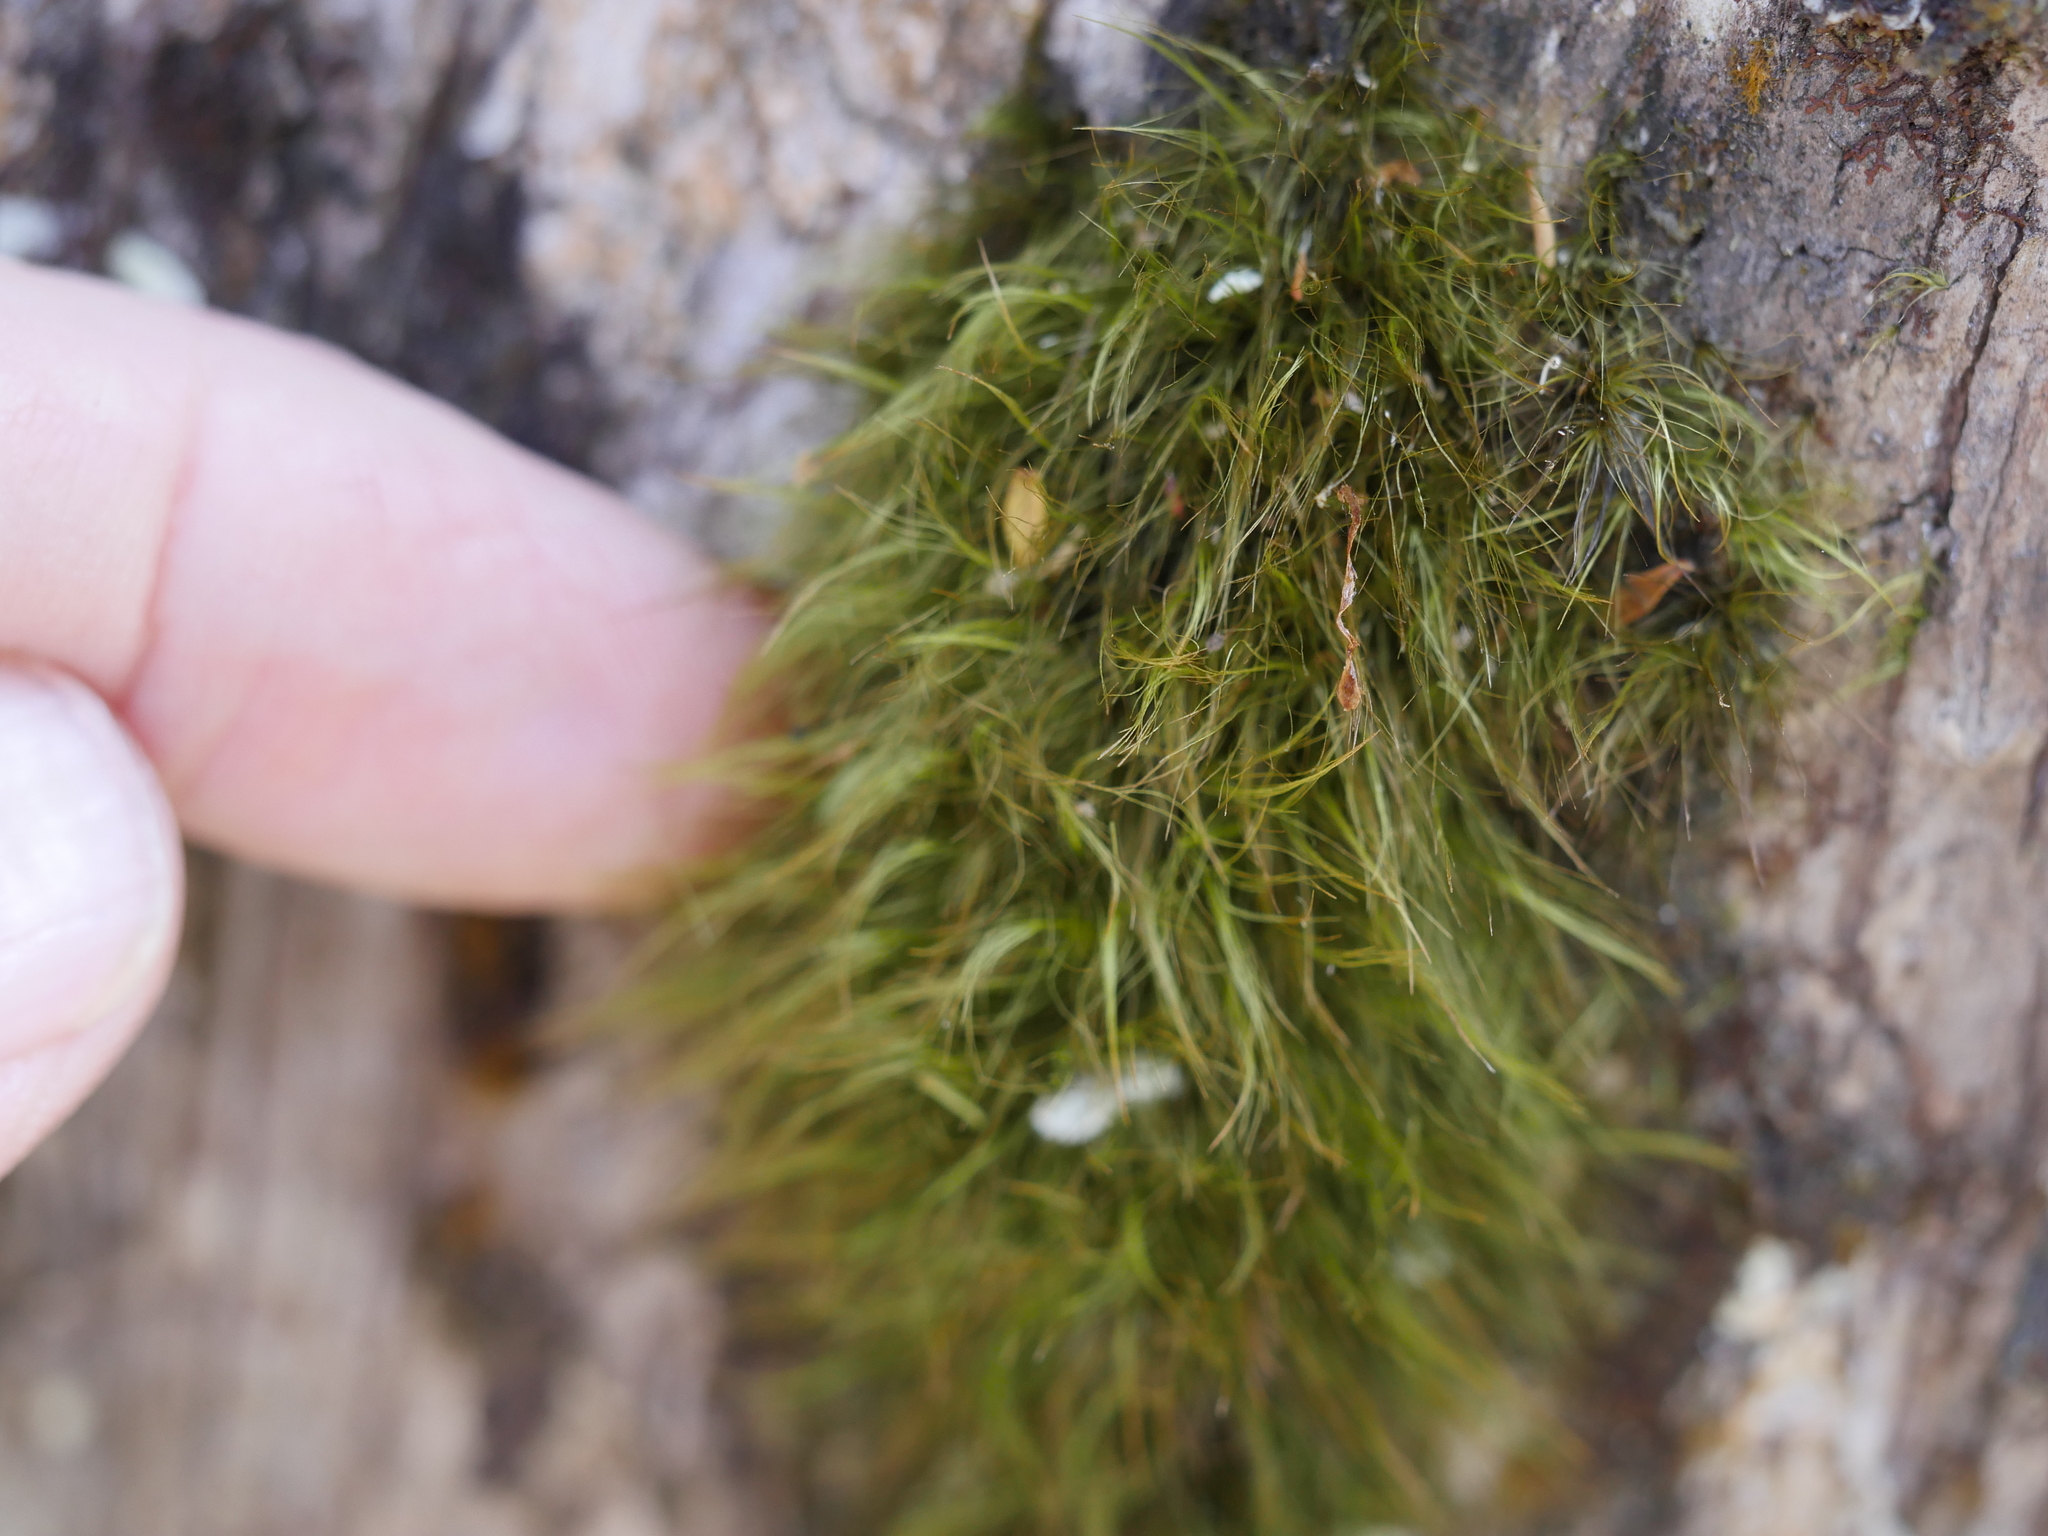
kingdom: Plantae
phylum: Bryophyta
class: Bryopsida
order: Dicranales
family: Dicranaceae
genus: Dicranoloma
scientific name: Dicranoloma menziesii
